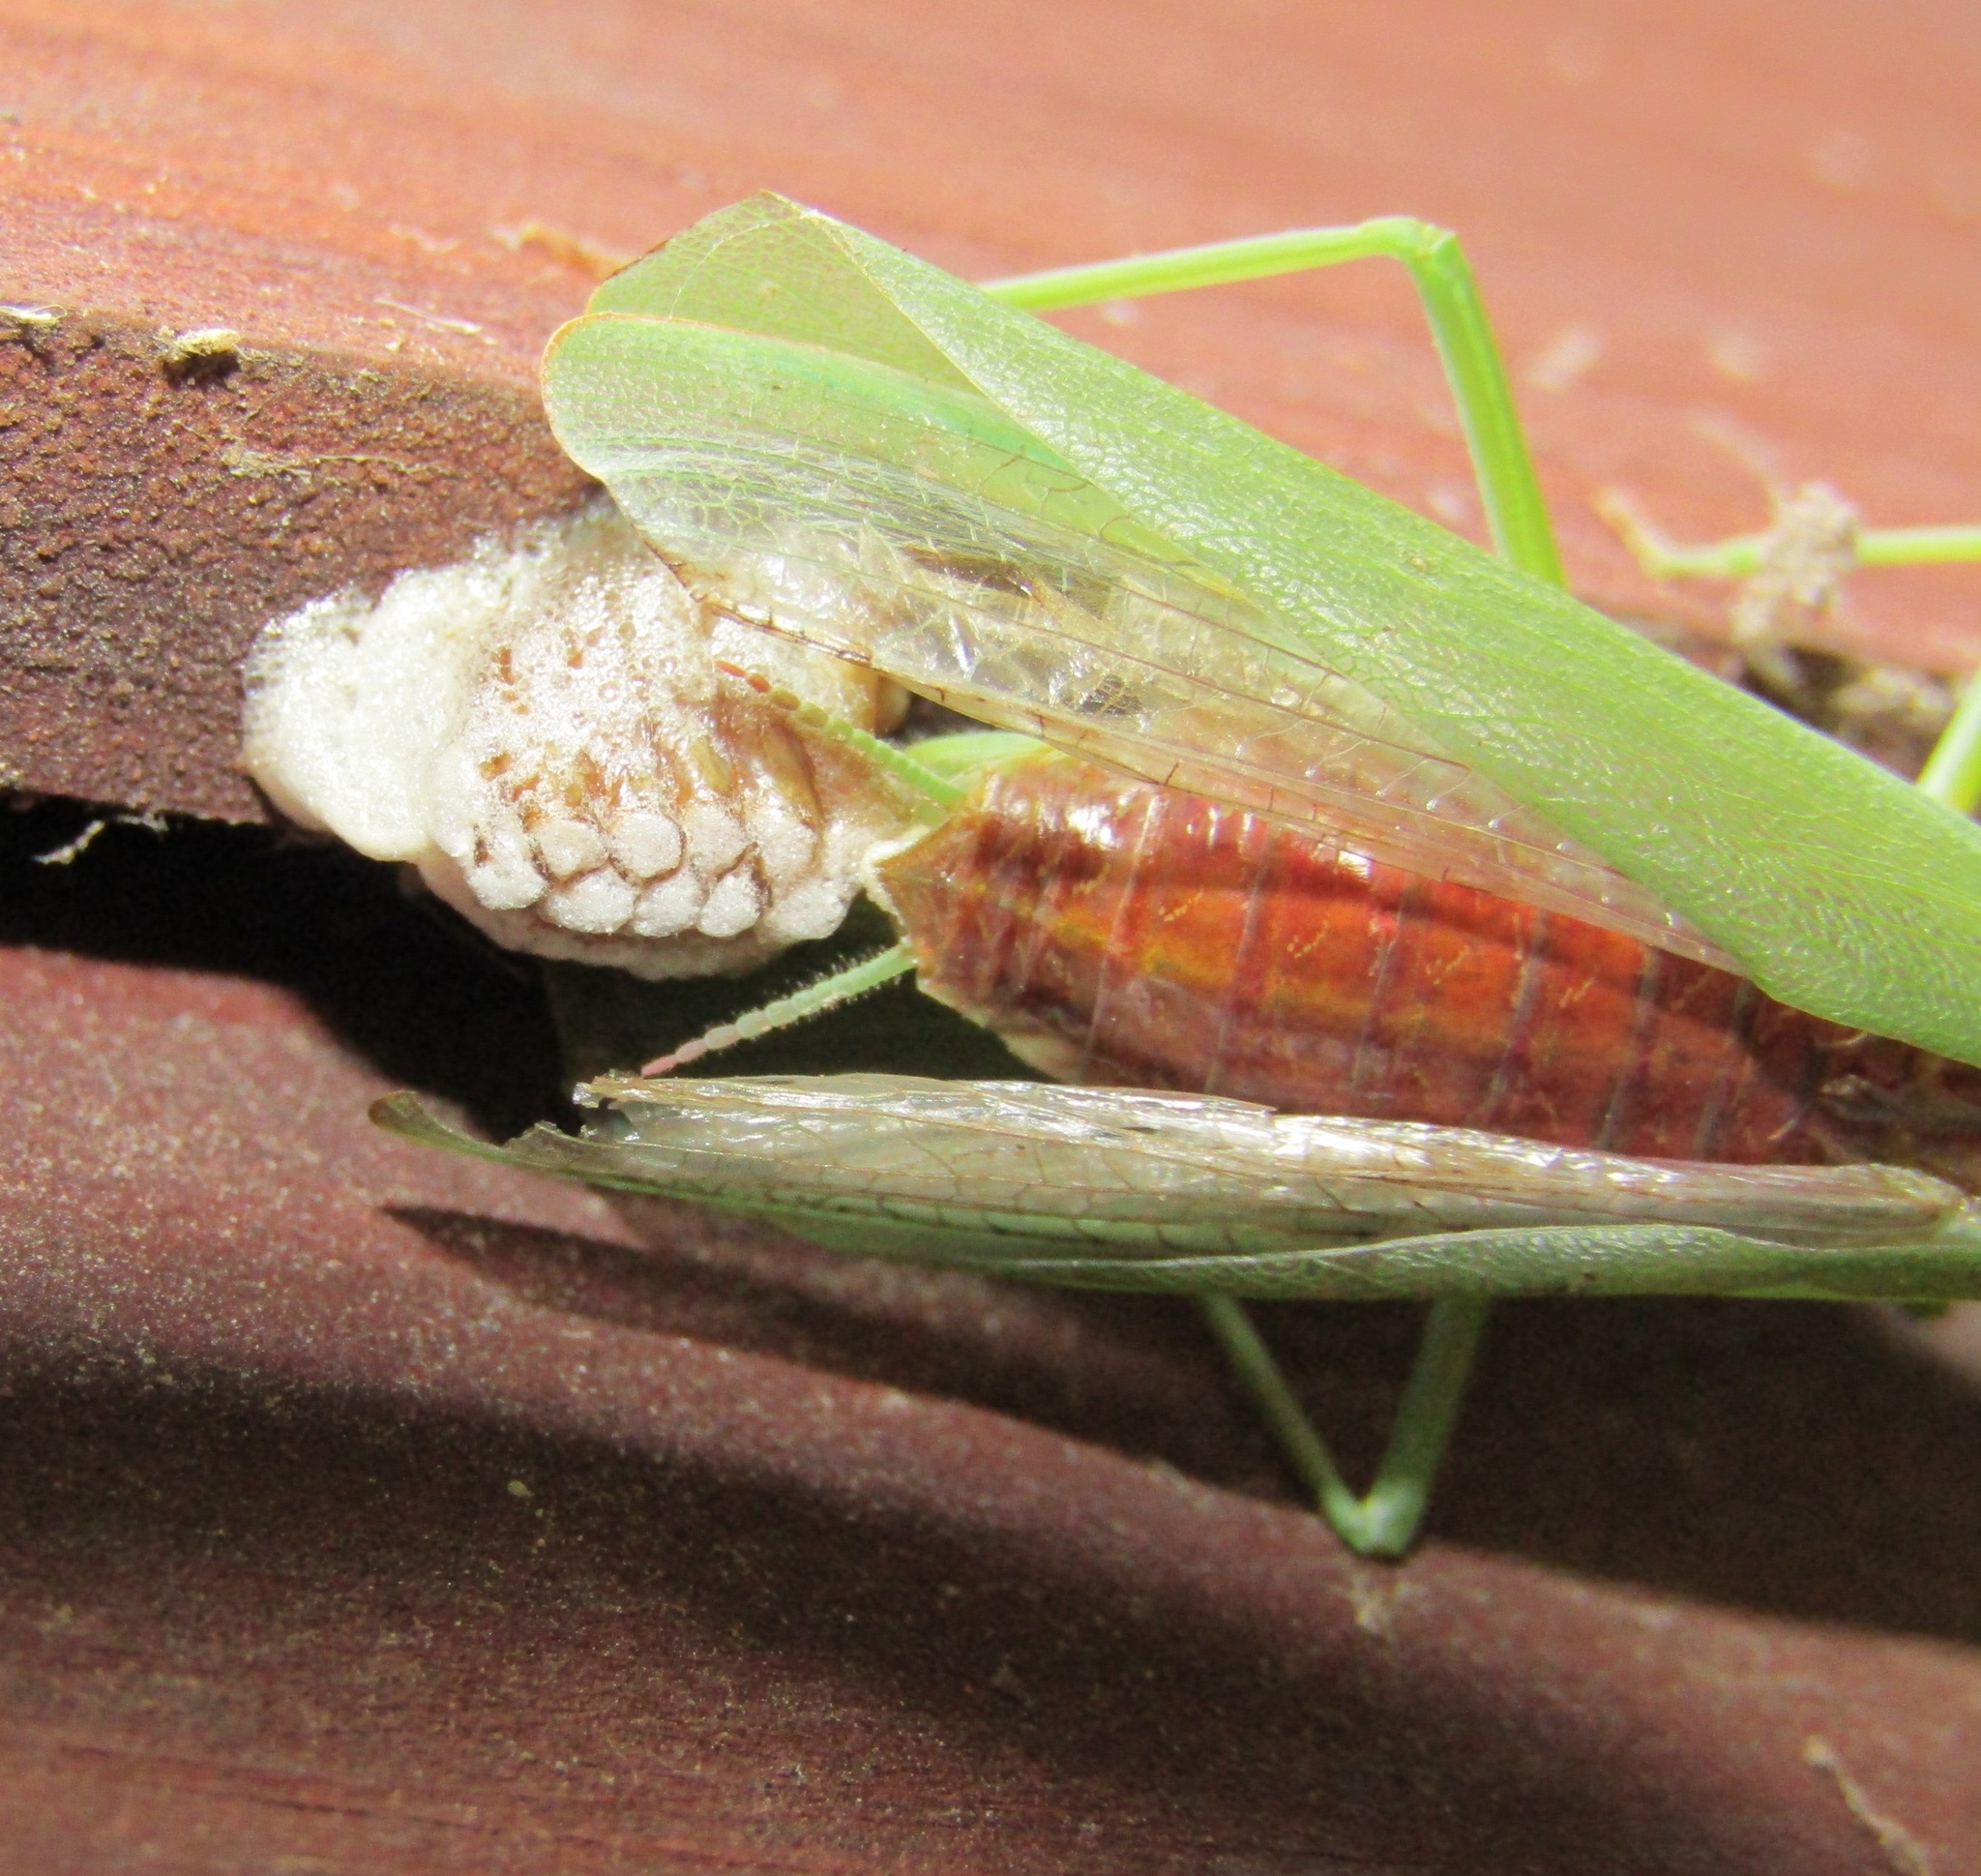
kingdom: Animalia
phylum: Arthropoda
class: Insecta
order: Mantodea
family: Mantidae
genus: Orthodera
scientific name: Orthodera novaezealandiae
